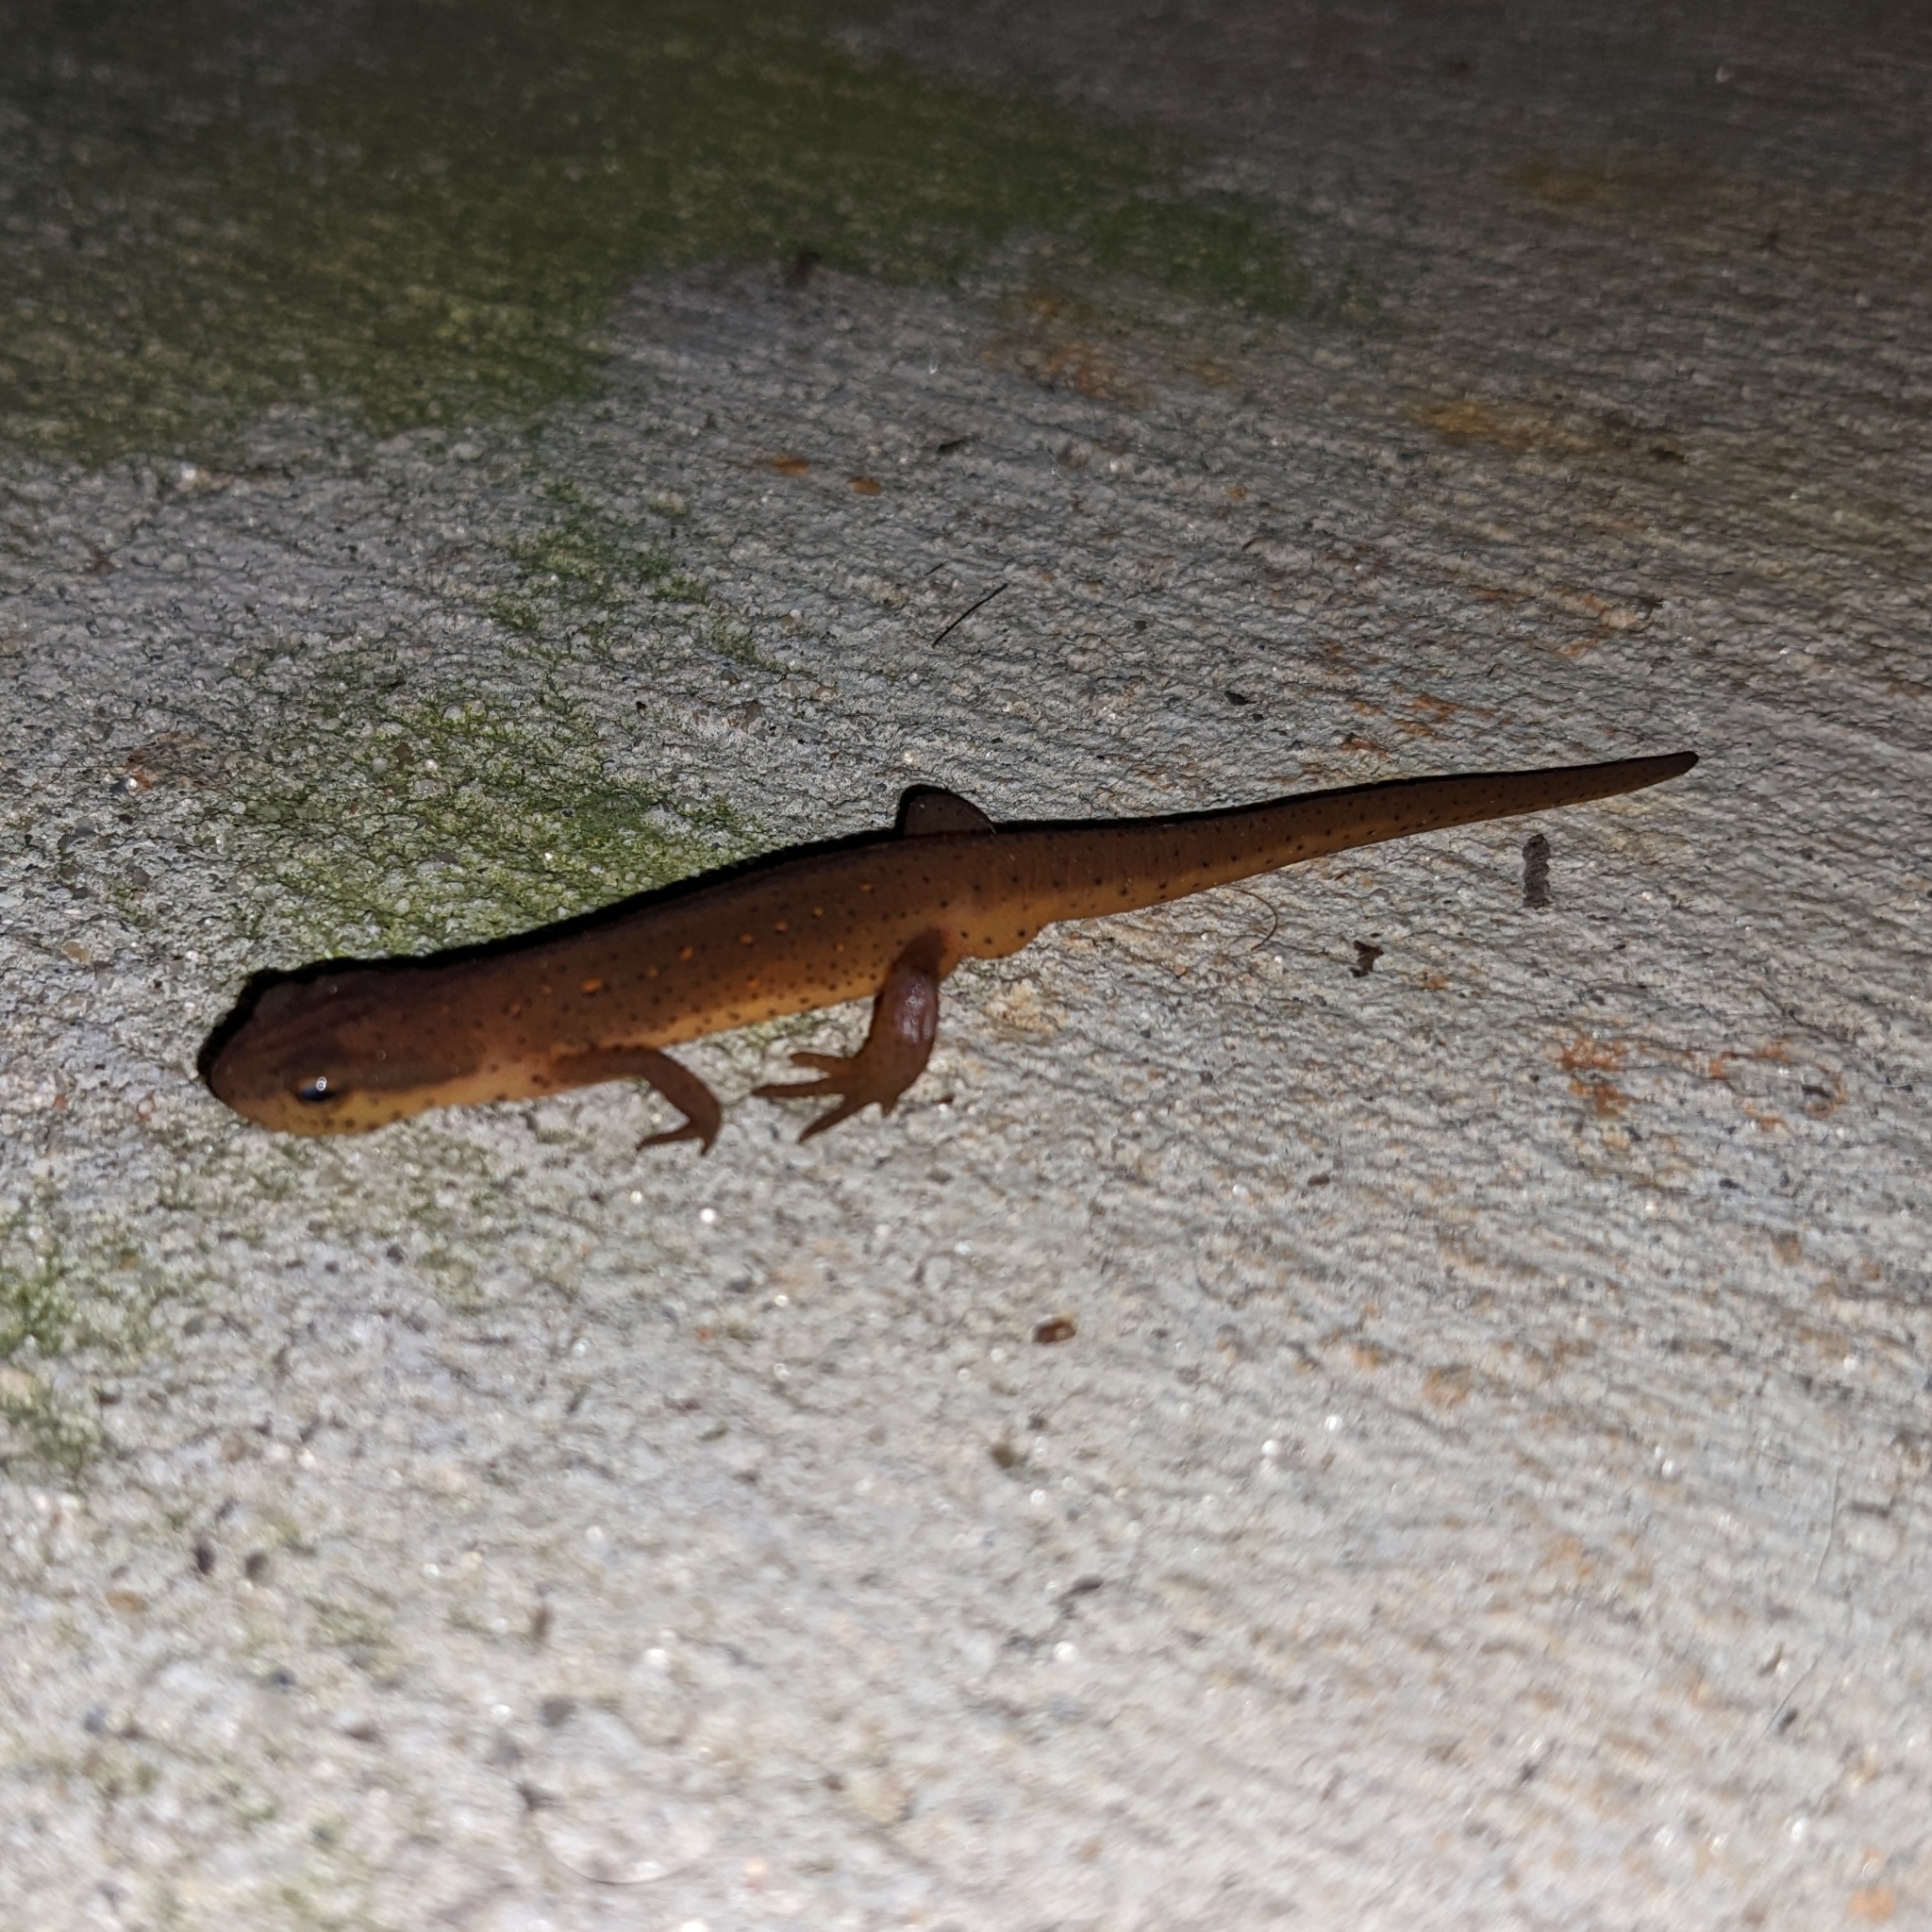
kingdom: Animalia
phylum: Chordata
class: Amphibia
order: Caudata
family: Salamandridae
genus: Notophthalmus
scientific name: Notophthalmus viridescens
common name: Eastern newt
